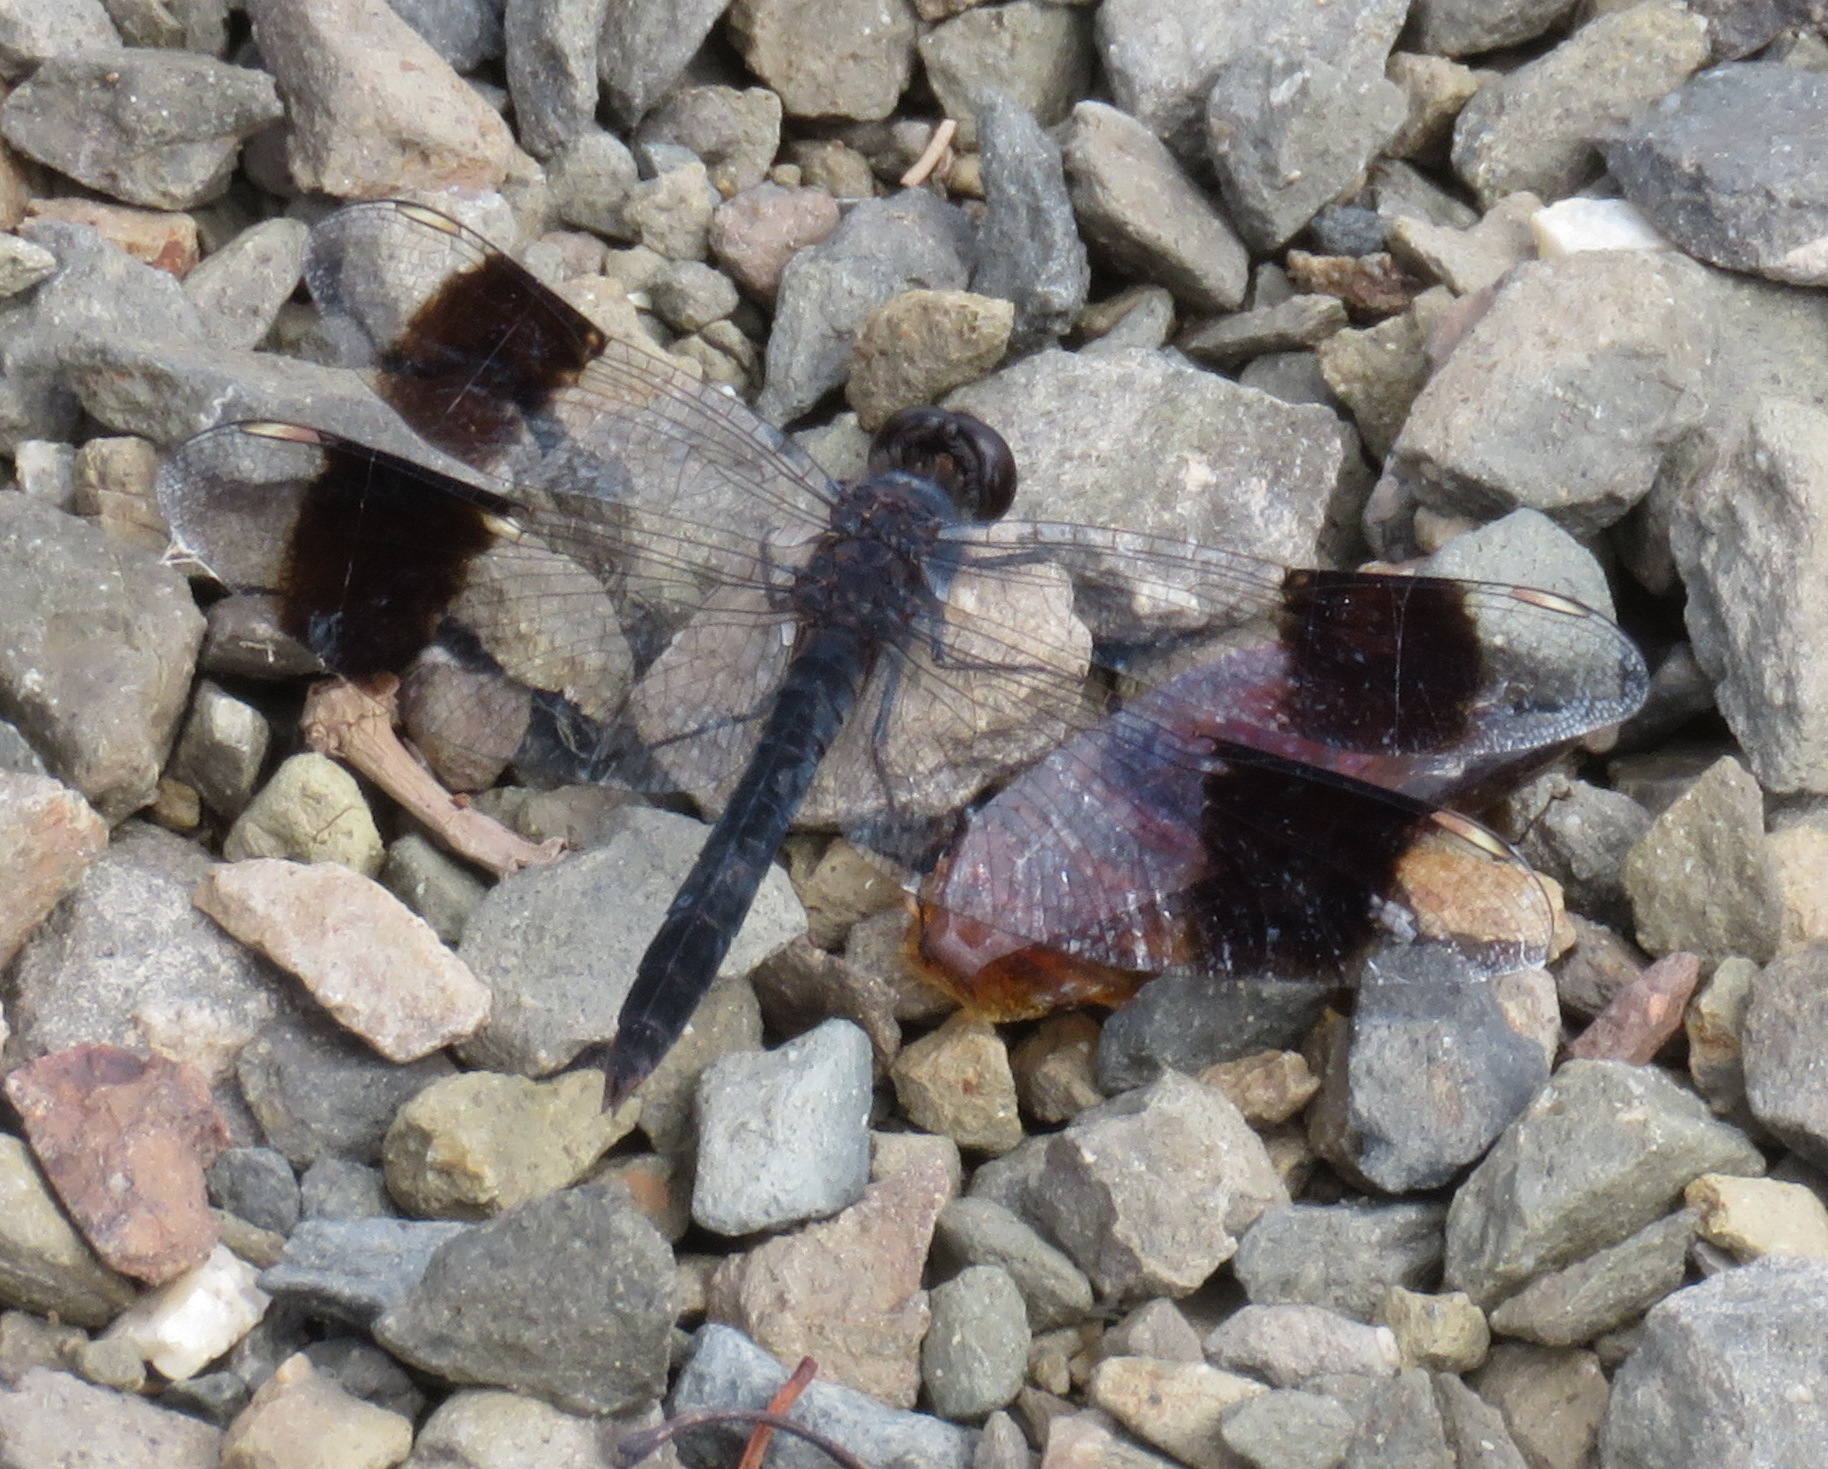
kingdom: Animalia
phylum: Arthropoda
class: Insecta
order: Odonata
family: Libellulidae
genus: Brachythemis
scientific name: Brachythemis leucosticta
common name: Banded groundling
